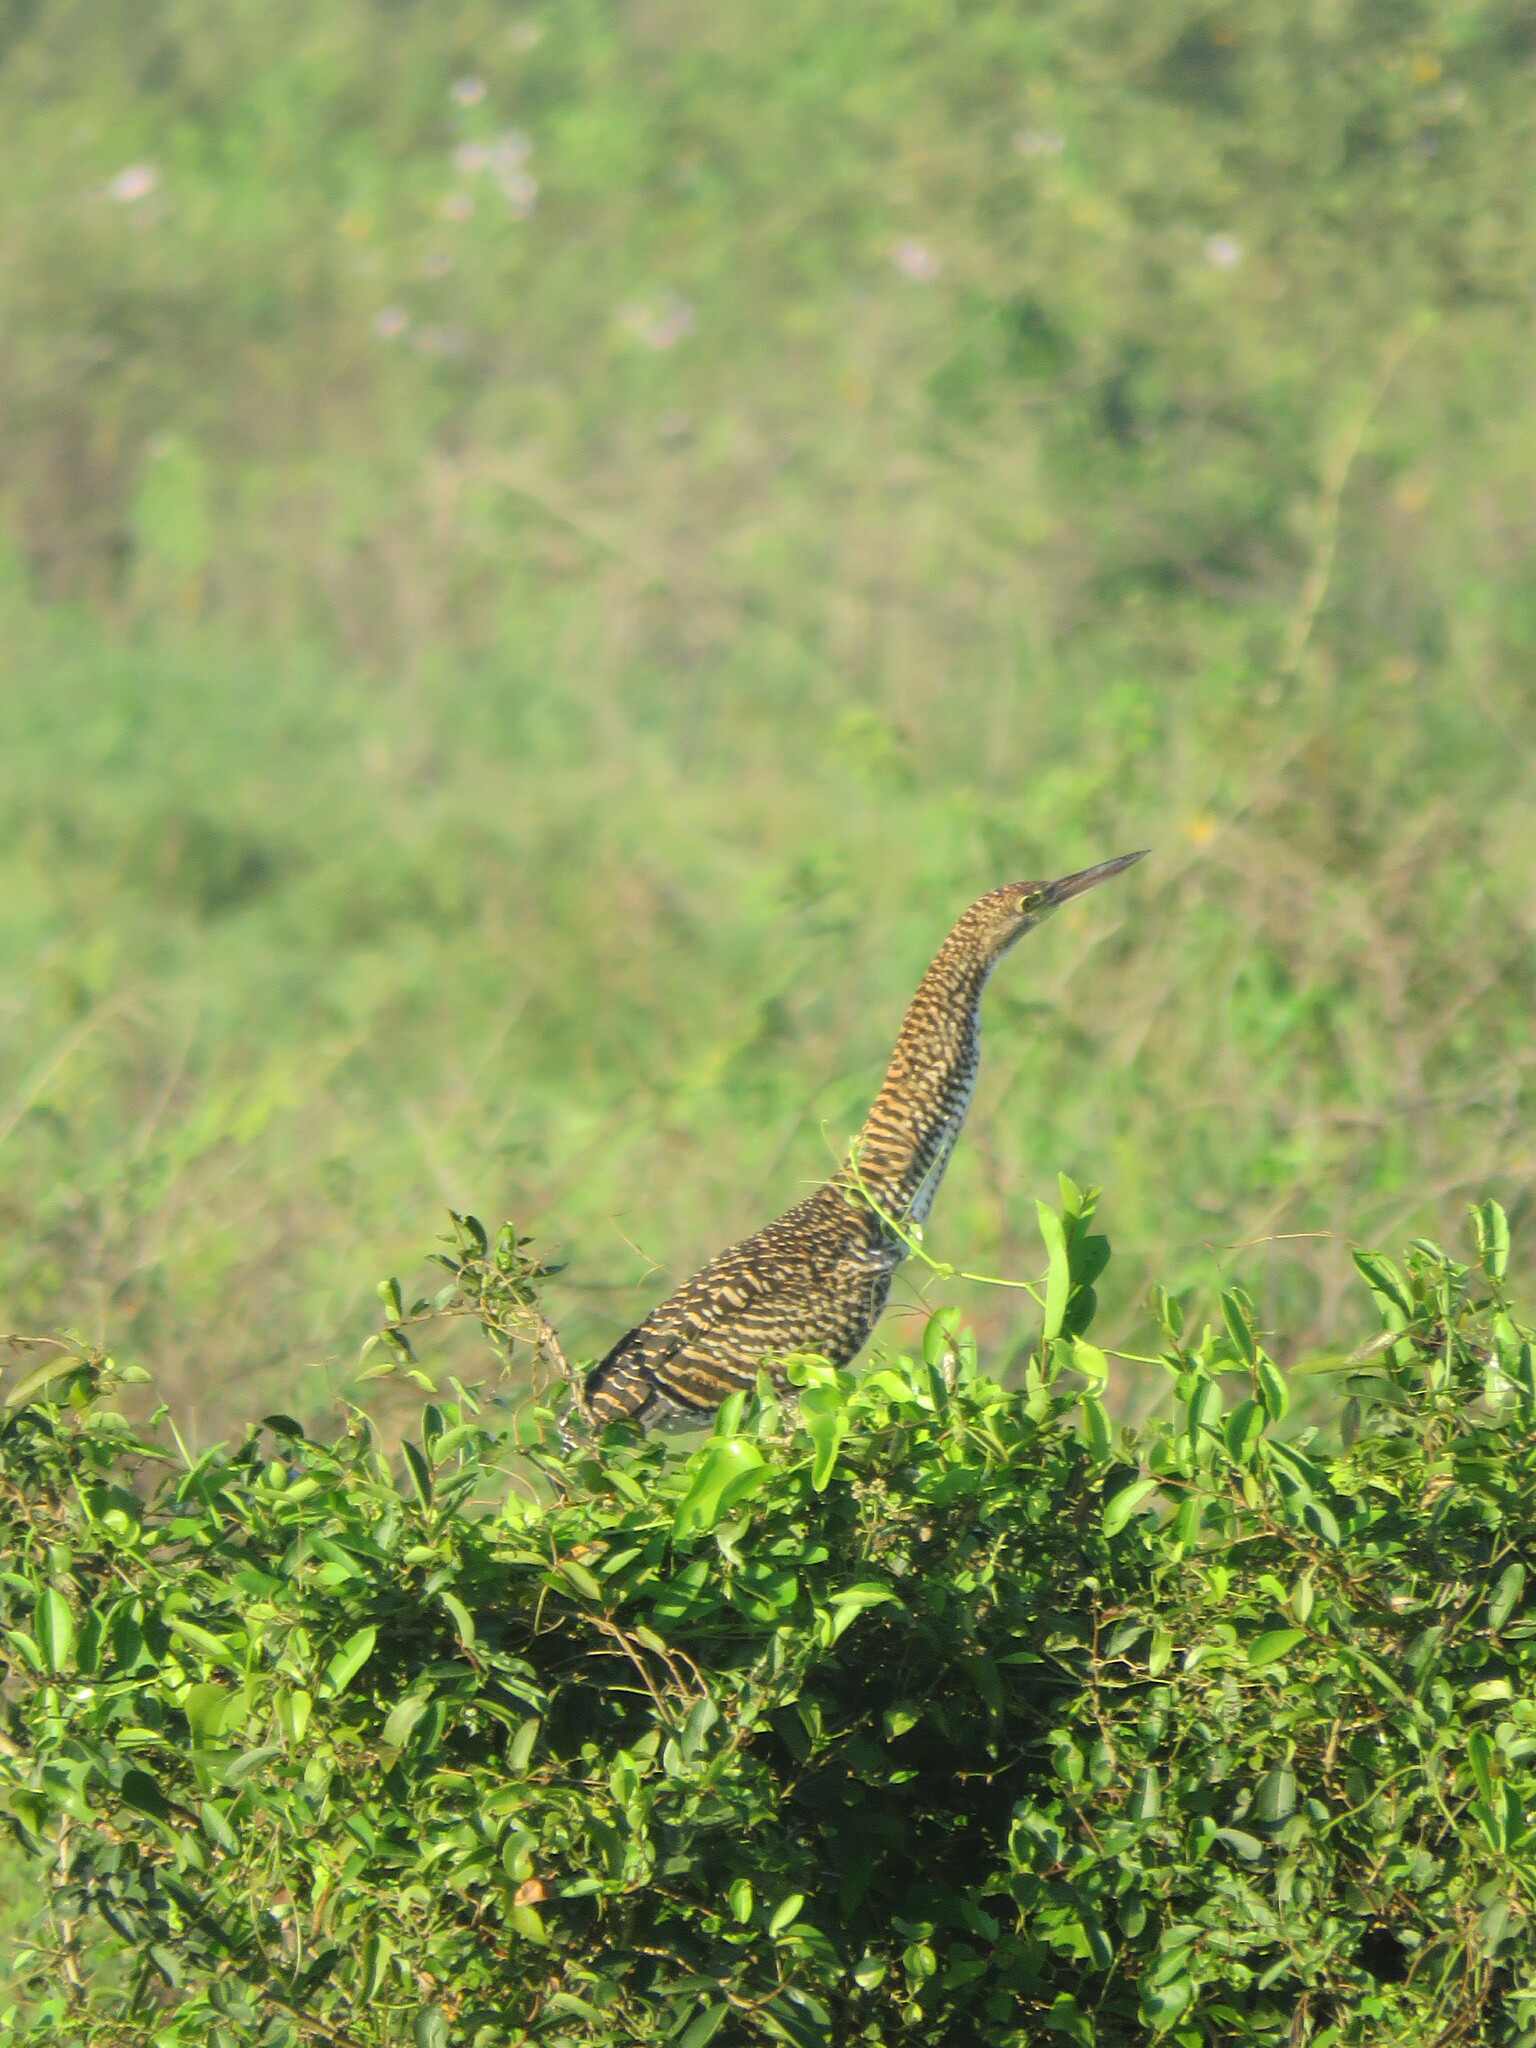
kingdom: Animalia
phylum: Chordata
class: Aves
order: Pelecaniformes
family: Ardeidae
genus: Tigrisoma
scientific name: Tigrisoma lineatum
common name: Rufescent tiger-heron
